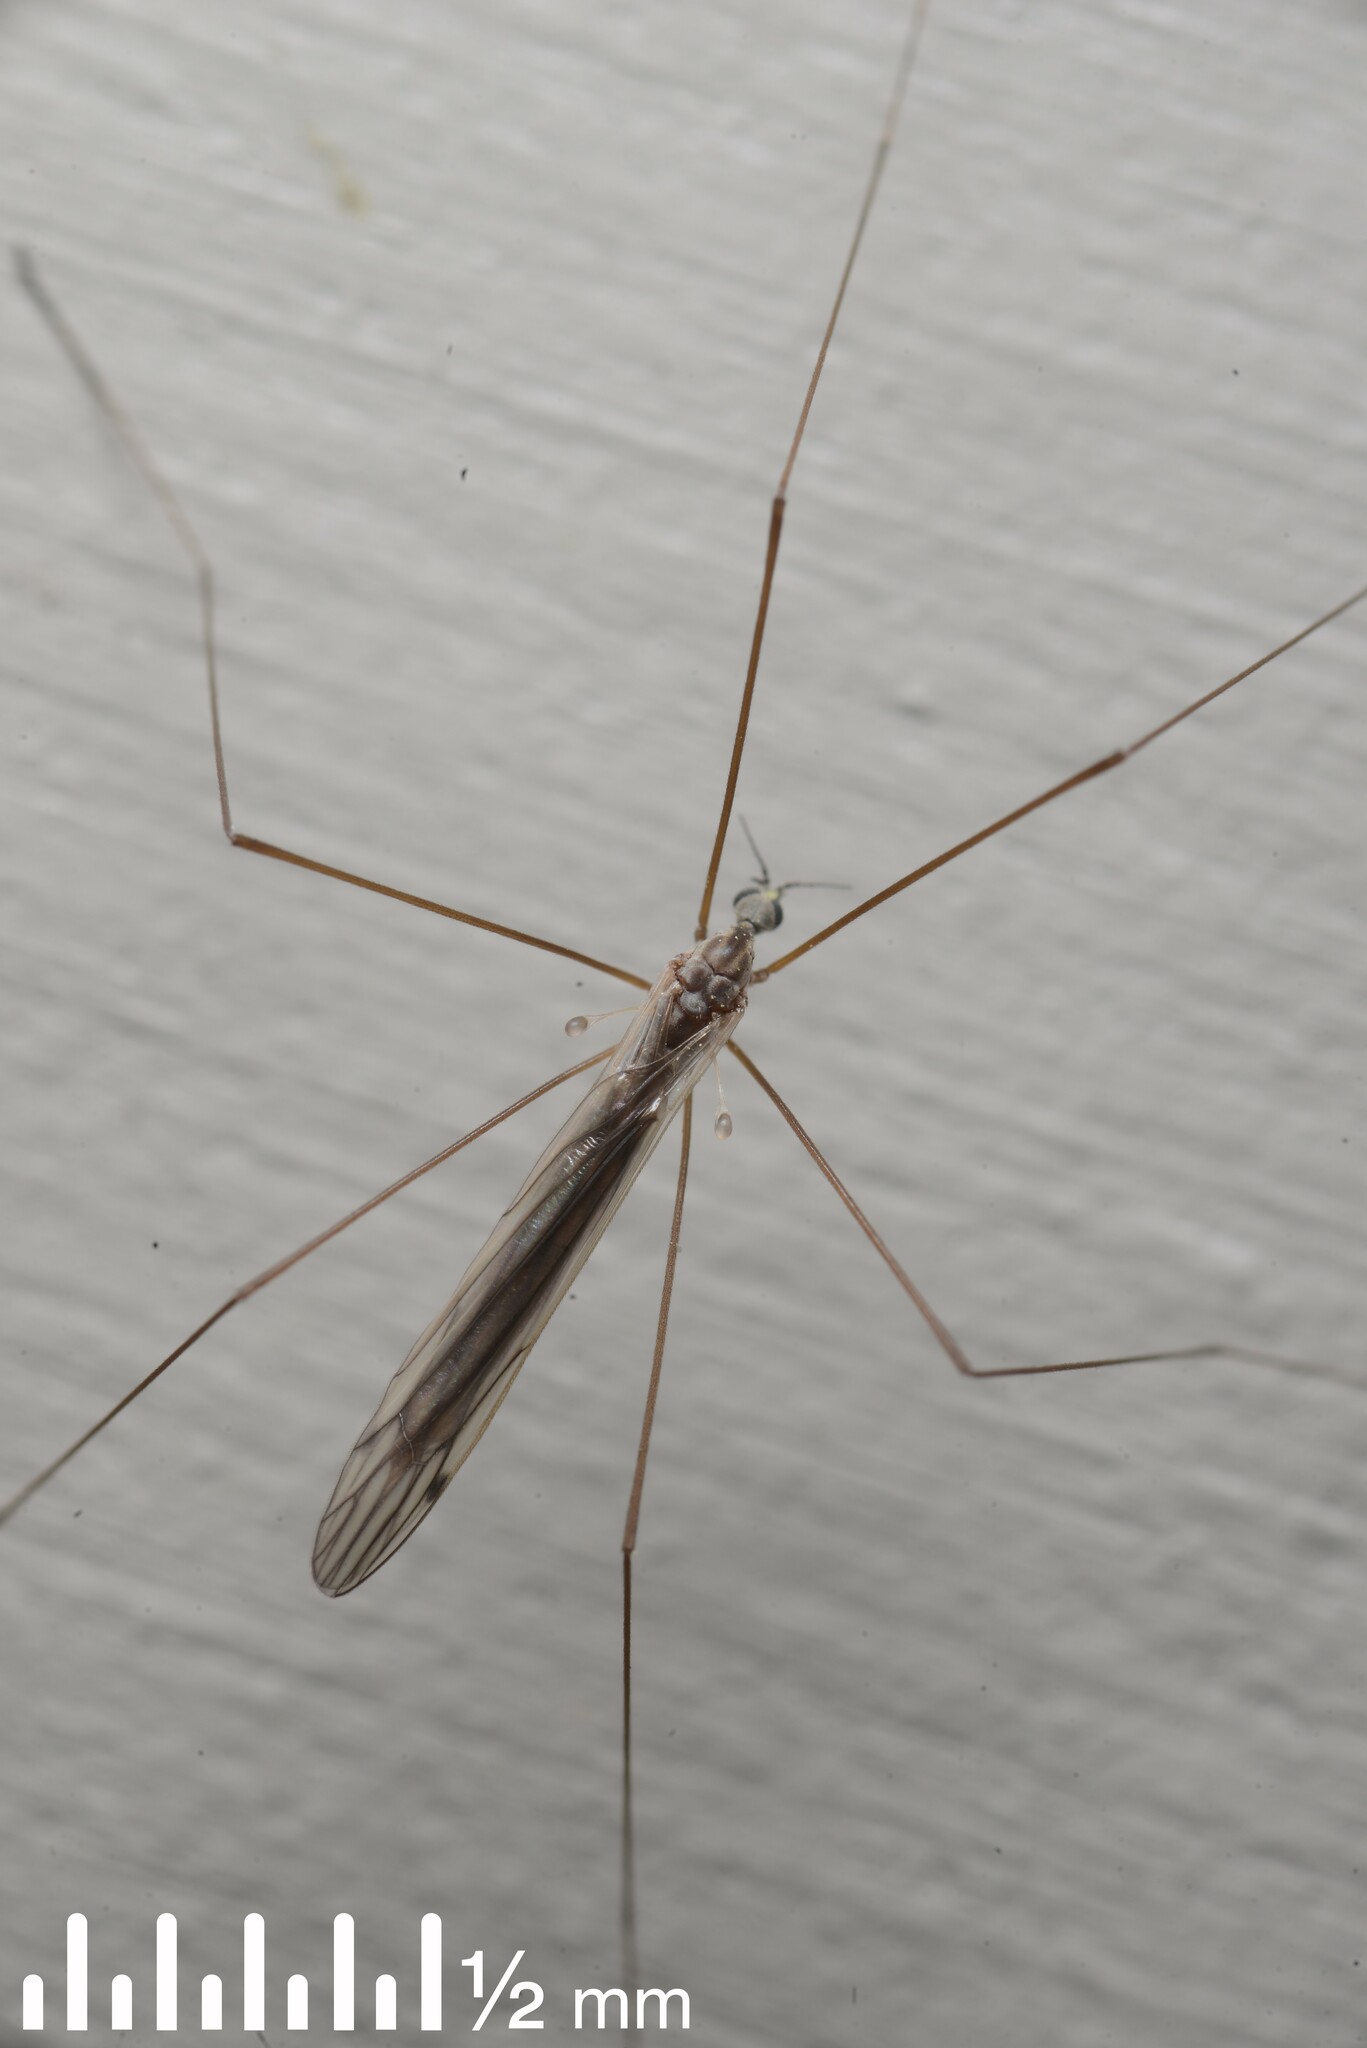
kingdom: Animalia
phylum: Arthropoda
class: Insecta
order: Diptera
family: Limoniidae
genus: Dicranomyia
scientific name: Dicranomyia aegrotans
